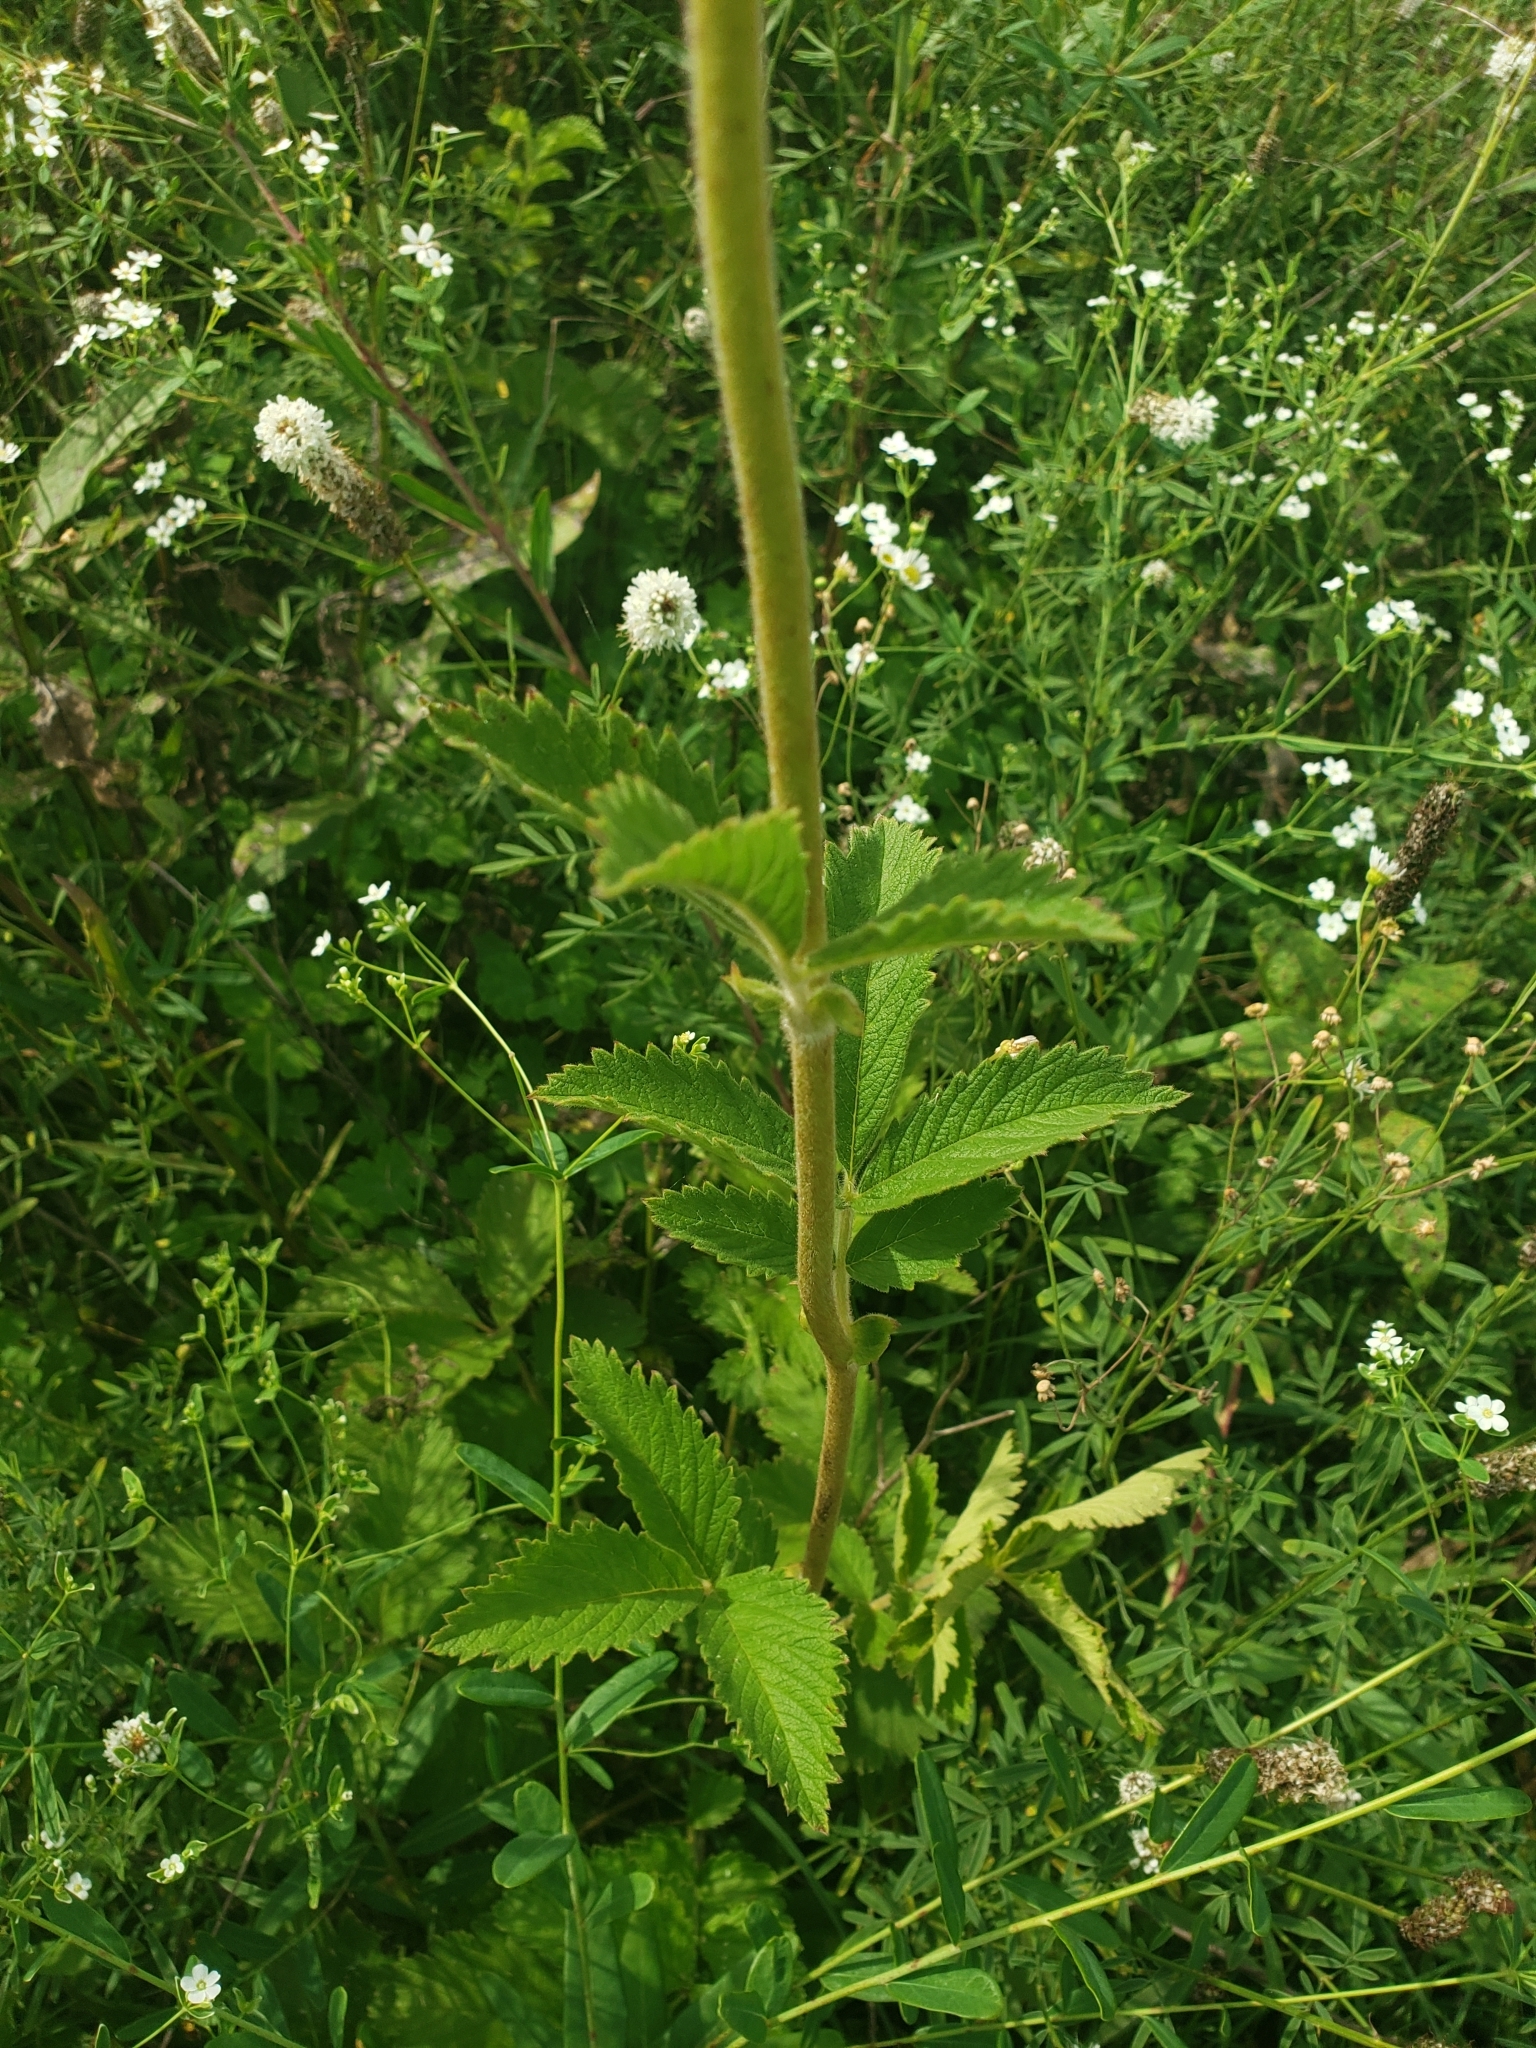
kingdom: Plantae
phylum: Tracheophyta
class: Magnoliopsida
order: Rosales
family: Rosaceae
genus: Drymocallis
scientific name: Drymocallis arguta
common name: Tall cinquefoil
